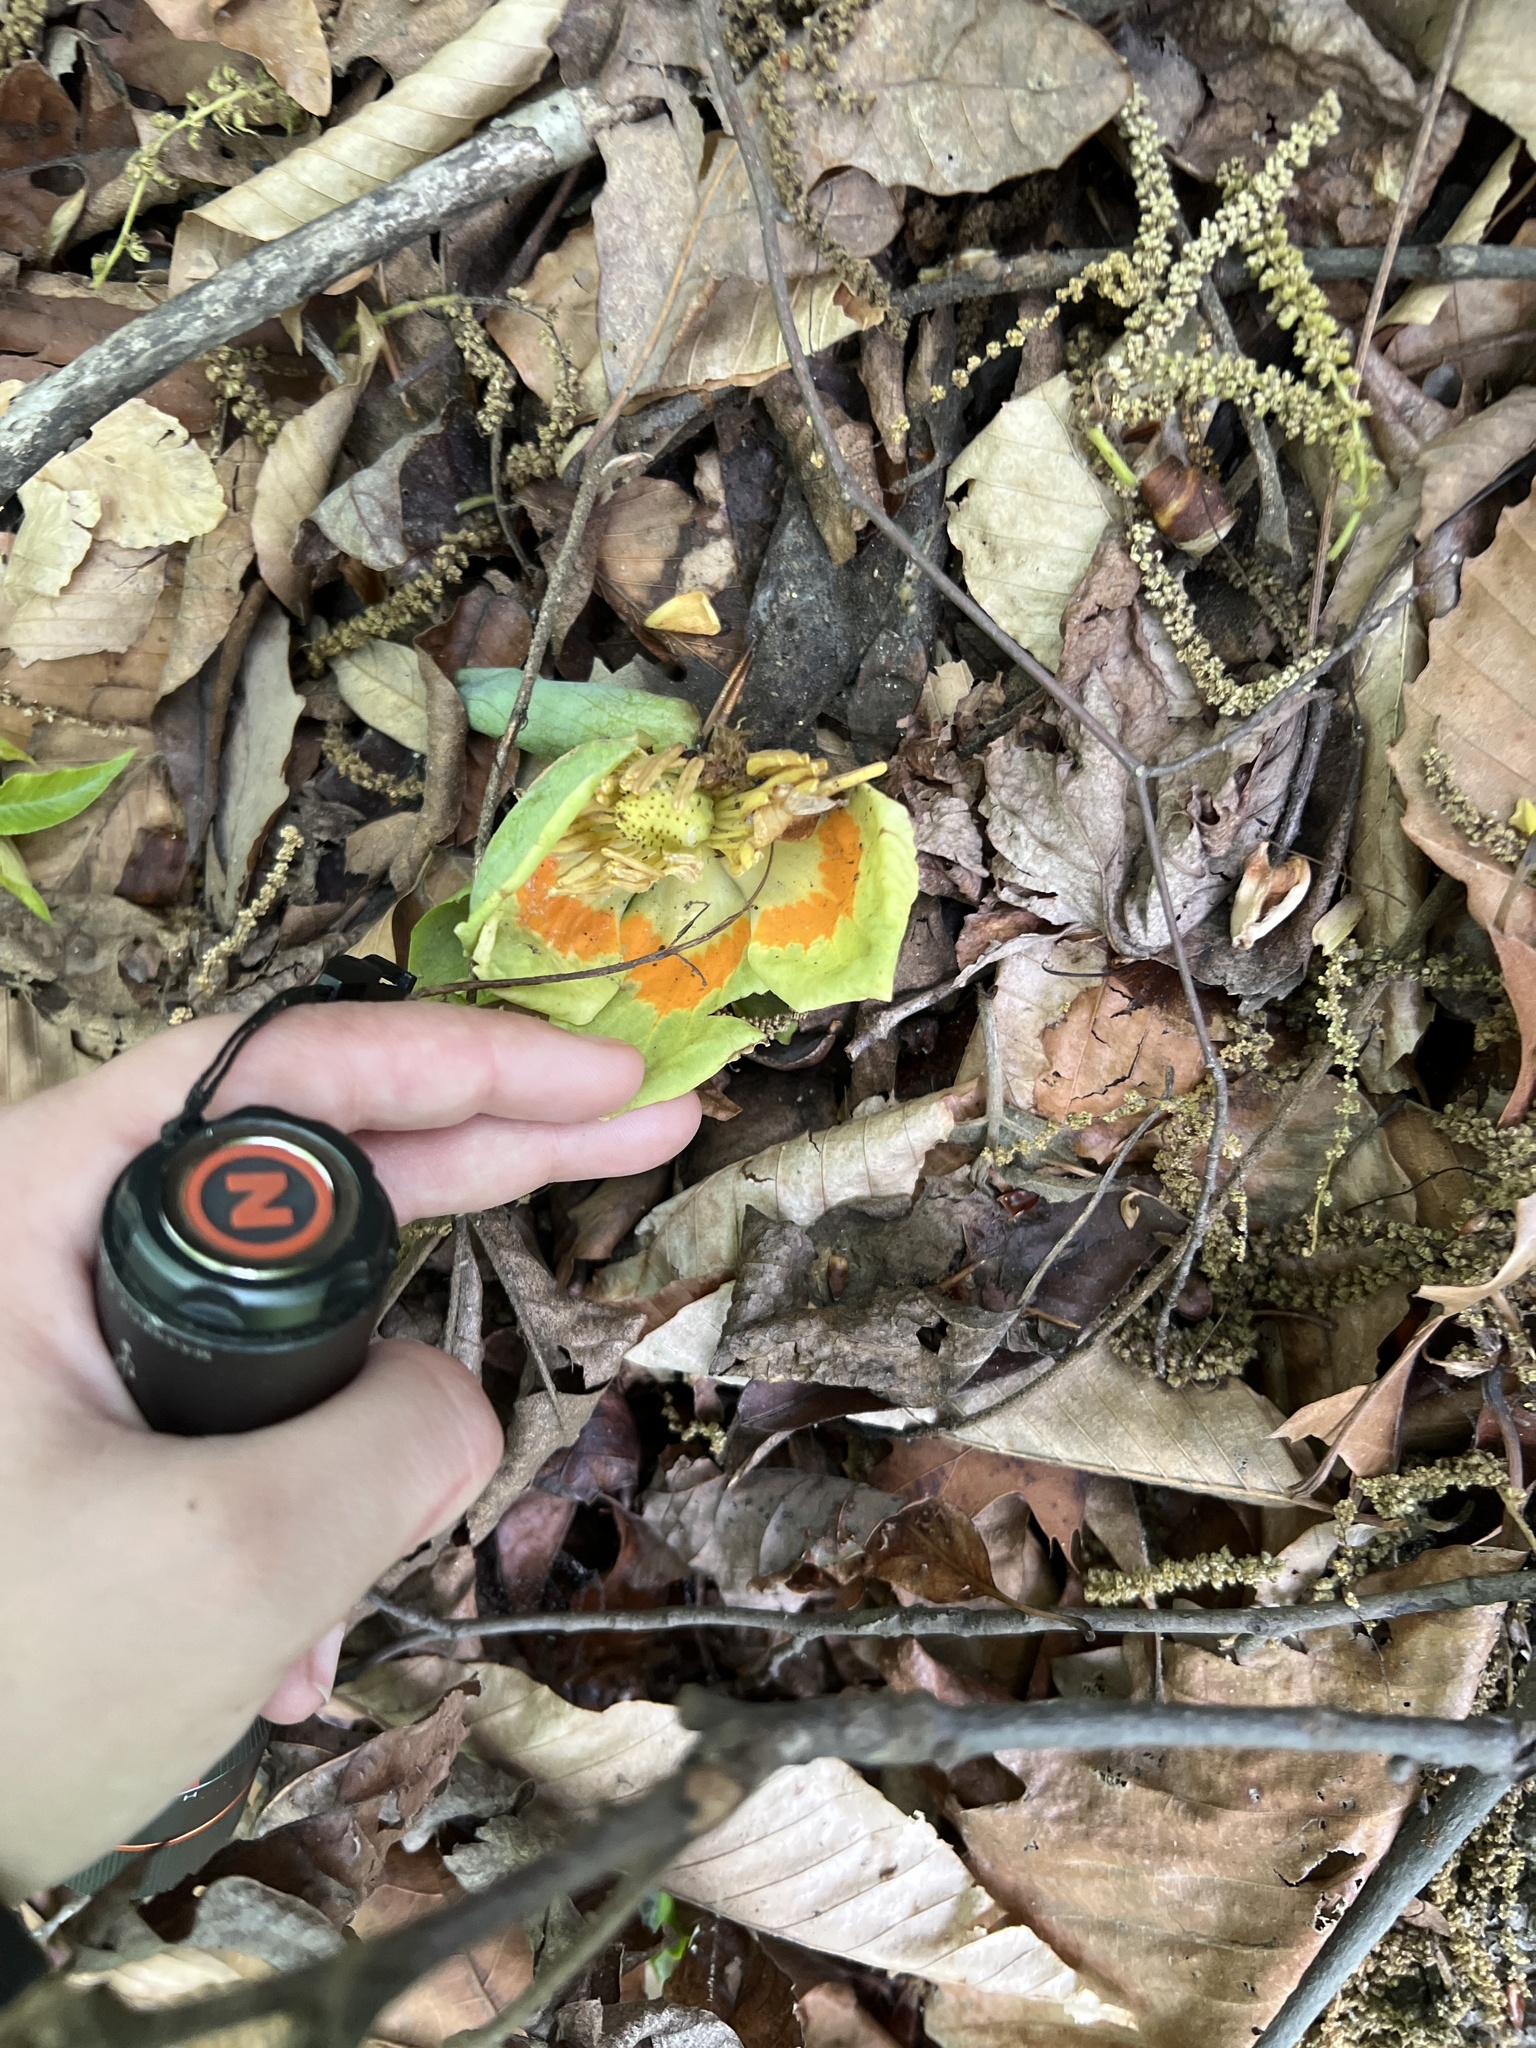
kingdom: Plantae
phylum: Tracheophyta
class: Magnoliopsida
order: Magnoliales
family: Magnoliaceae
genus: Liriodendron
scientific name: Liriodendron tulipifera
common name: Tulip tree
